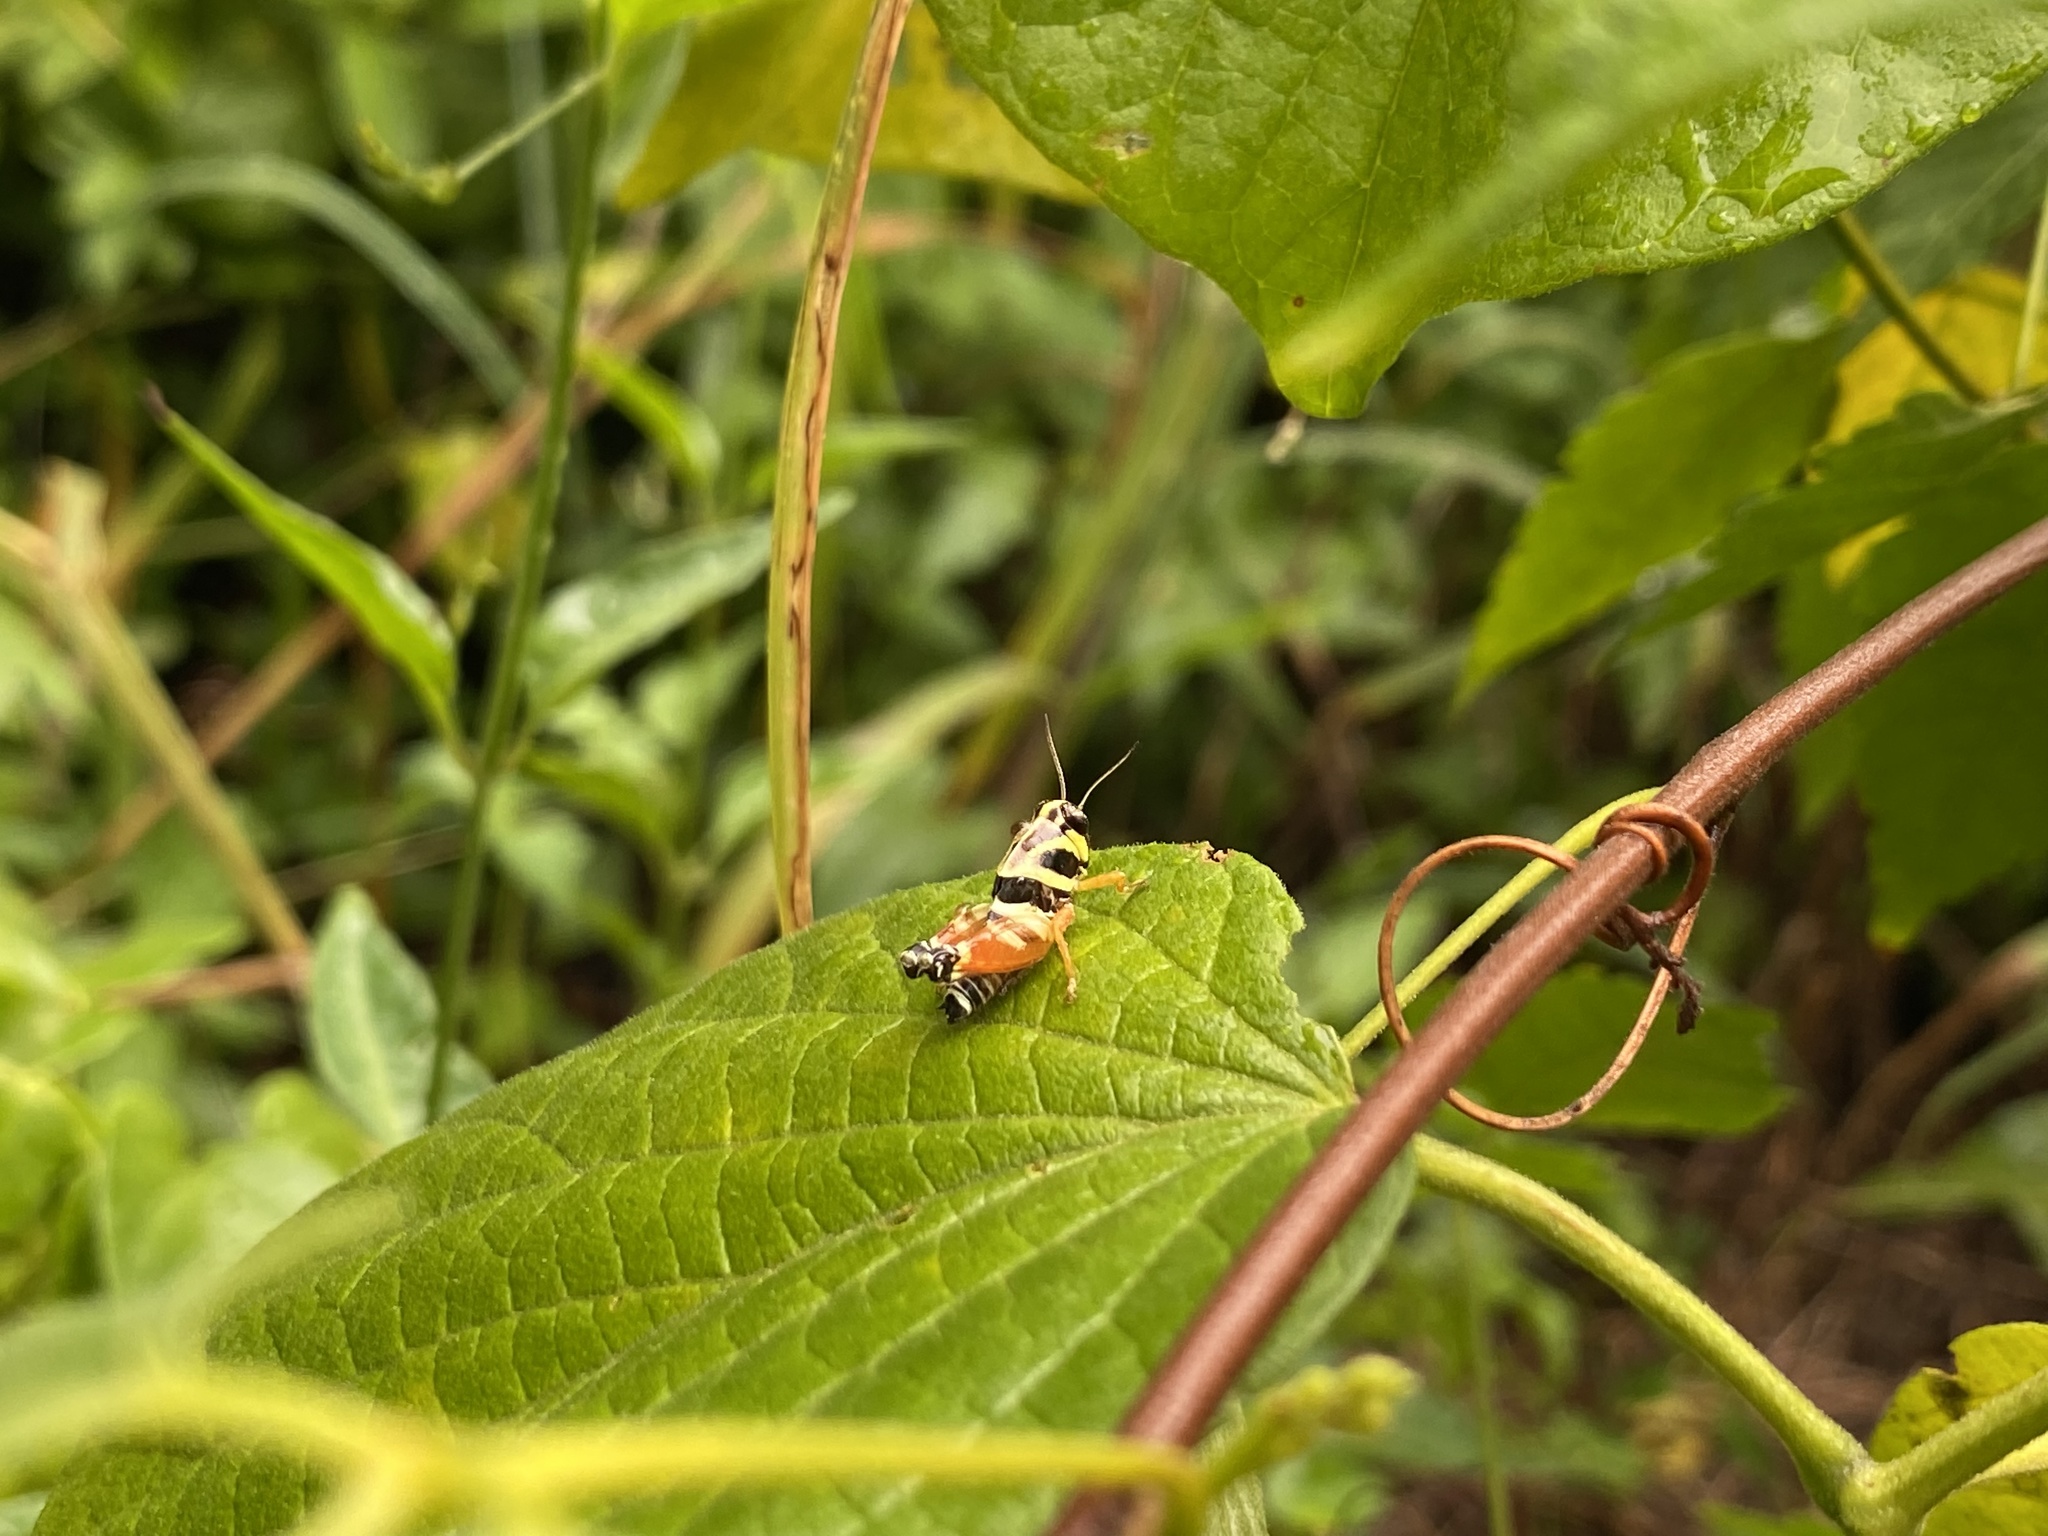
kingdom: Animalia
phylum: Arthropoda
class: Insecta
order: Orthoptera
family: Acrididae
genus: Aidemona
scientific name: Aidemona azteca
